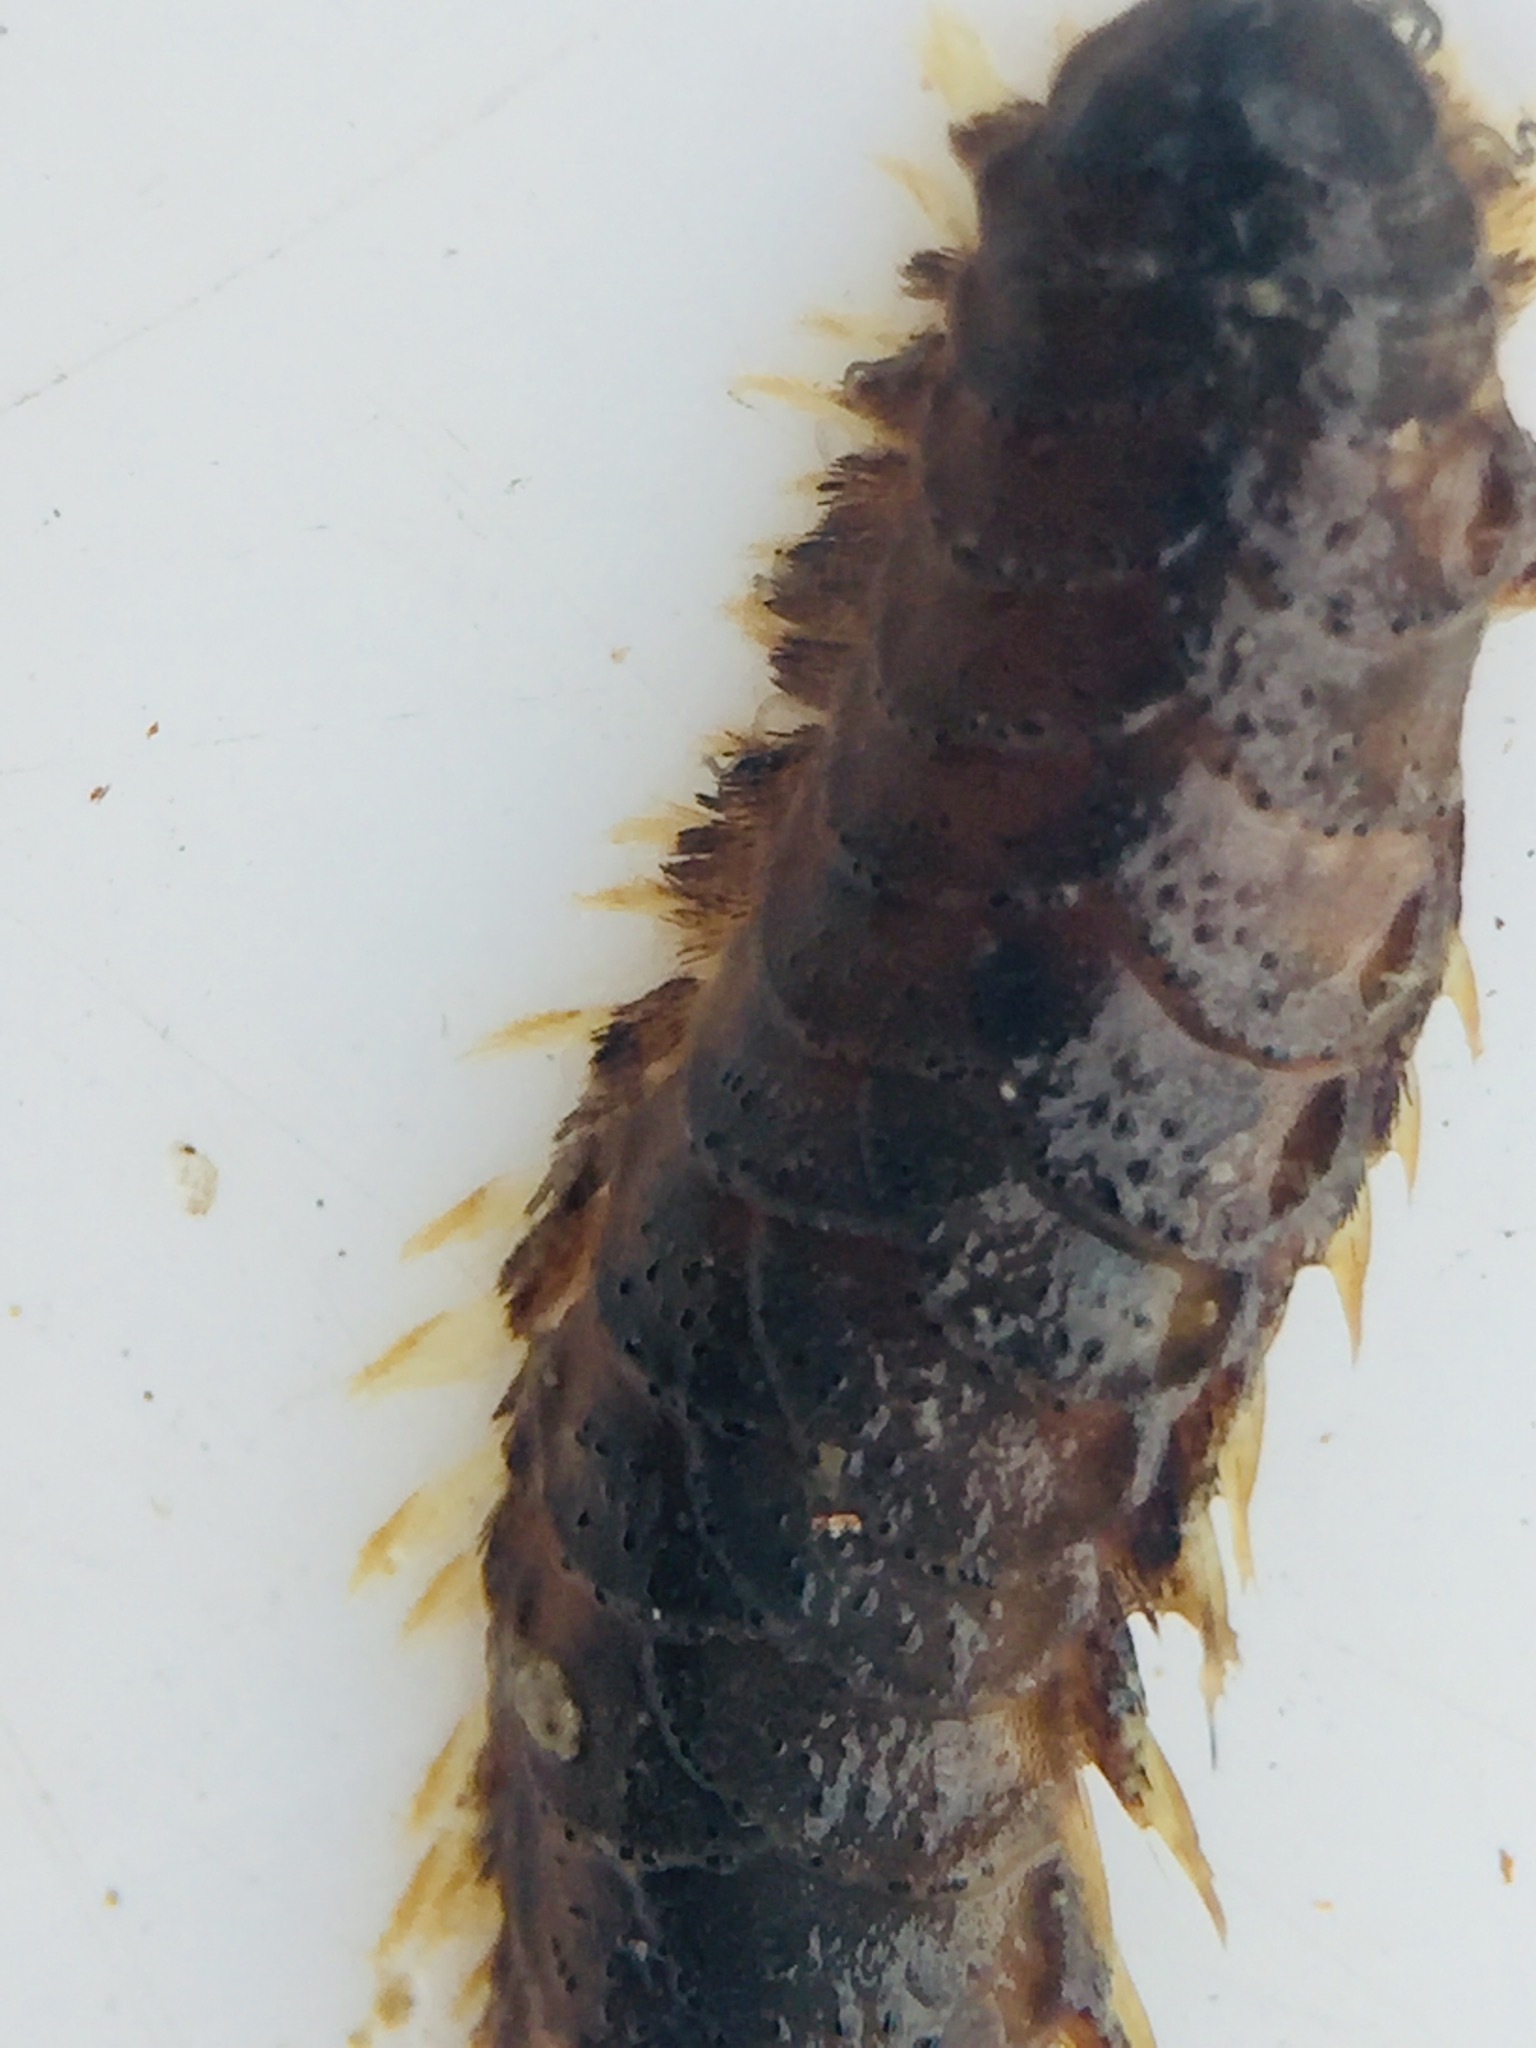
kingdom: Animalia
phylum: Annelida
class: Polychaeta
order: Phyllodocida
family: Polynoidae
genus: Paralepidonotus
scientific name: Paralepidonotus ampulliferus
